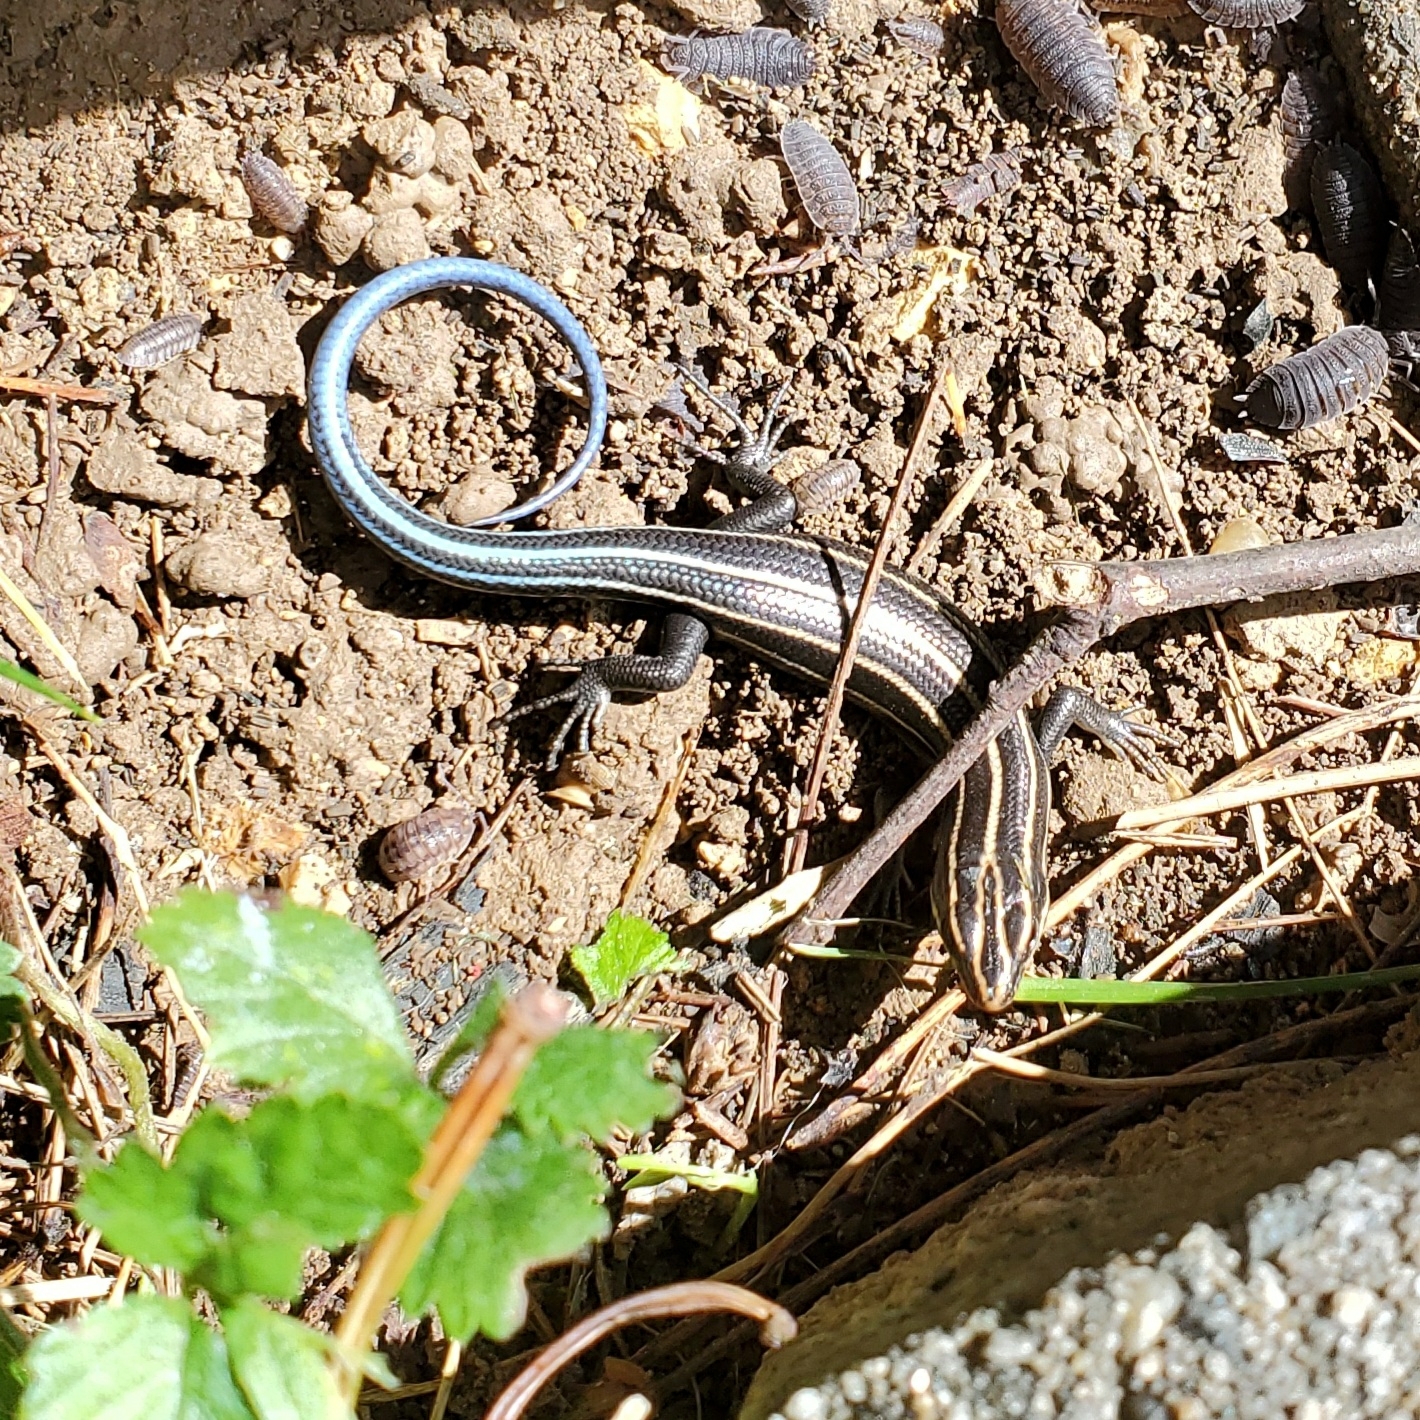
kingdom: Animalia
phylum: Chordata
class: Squamata
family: Scincidae
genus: Plestiodon
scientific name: Plestiodon fasciatus
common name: Five-lined skink
